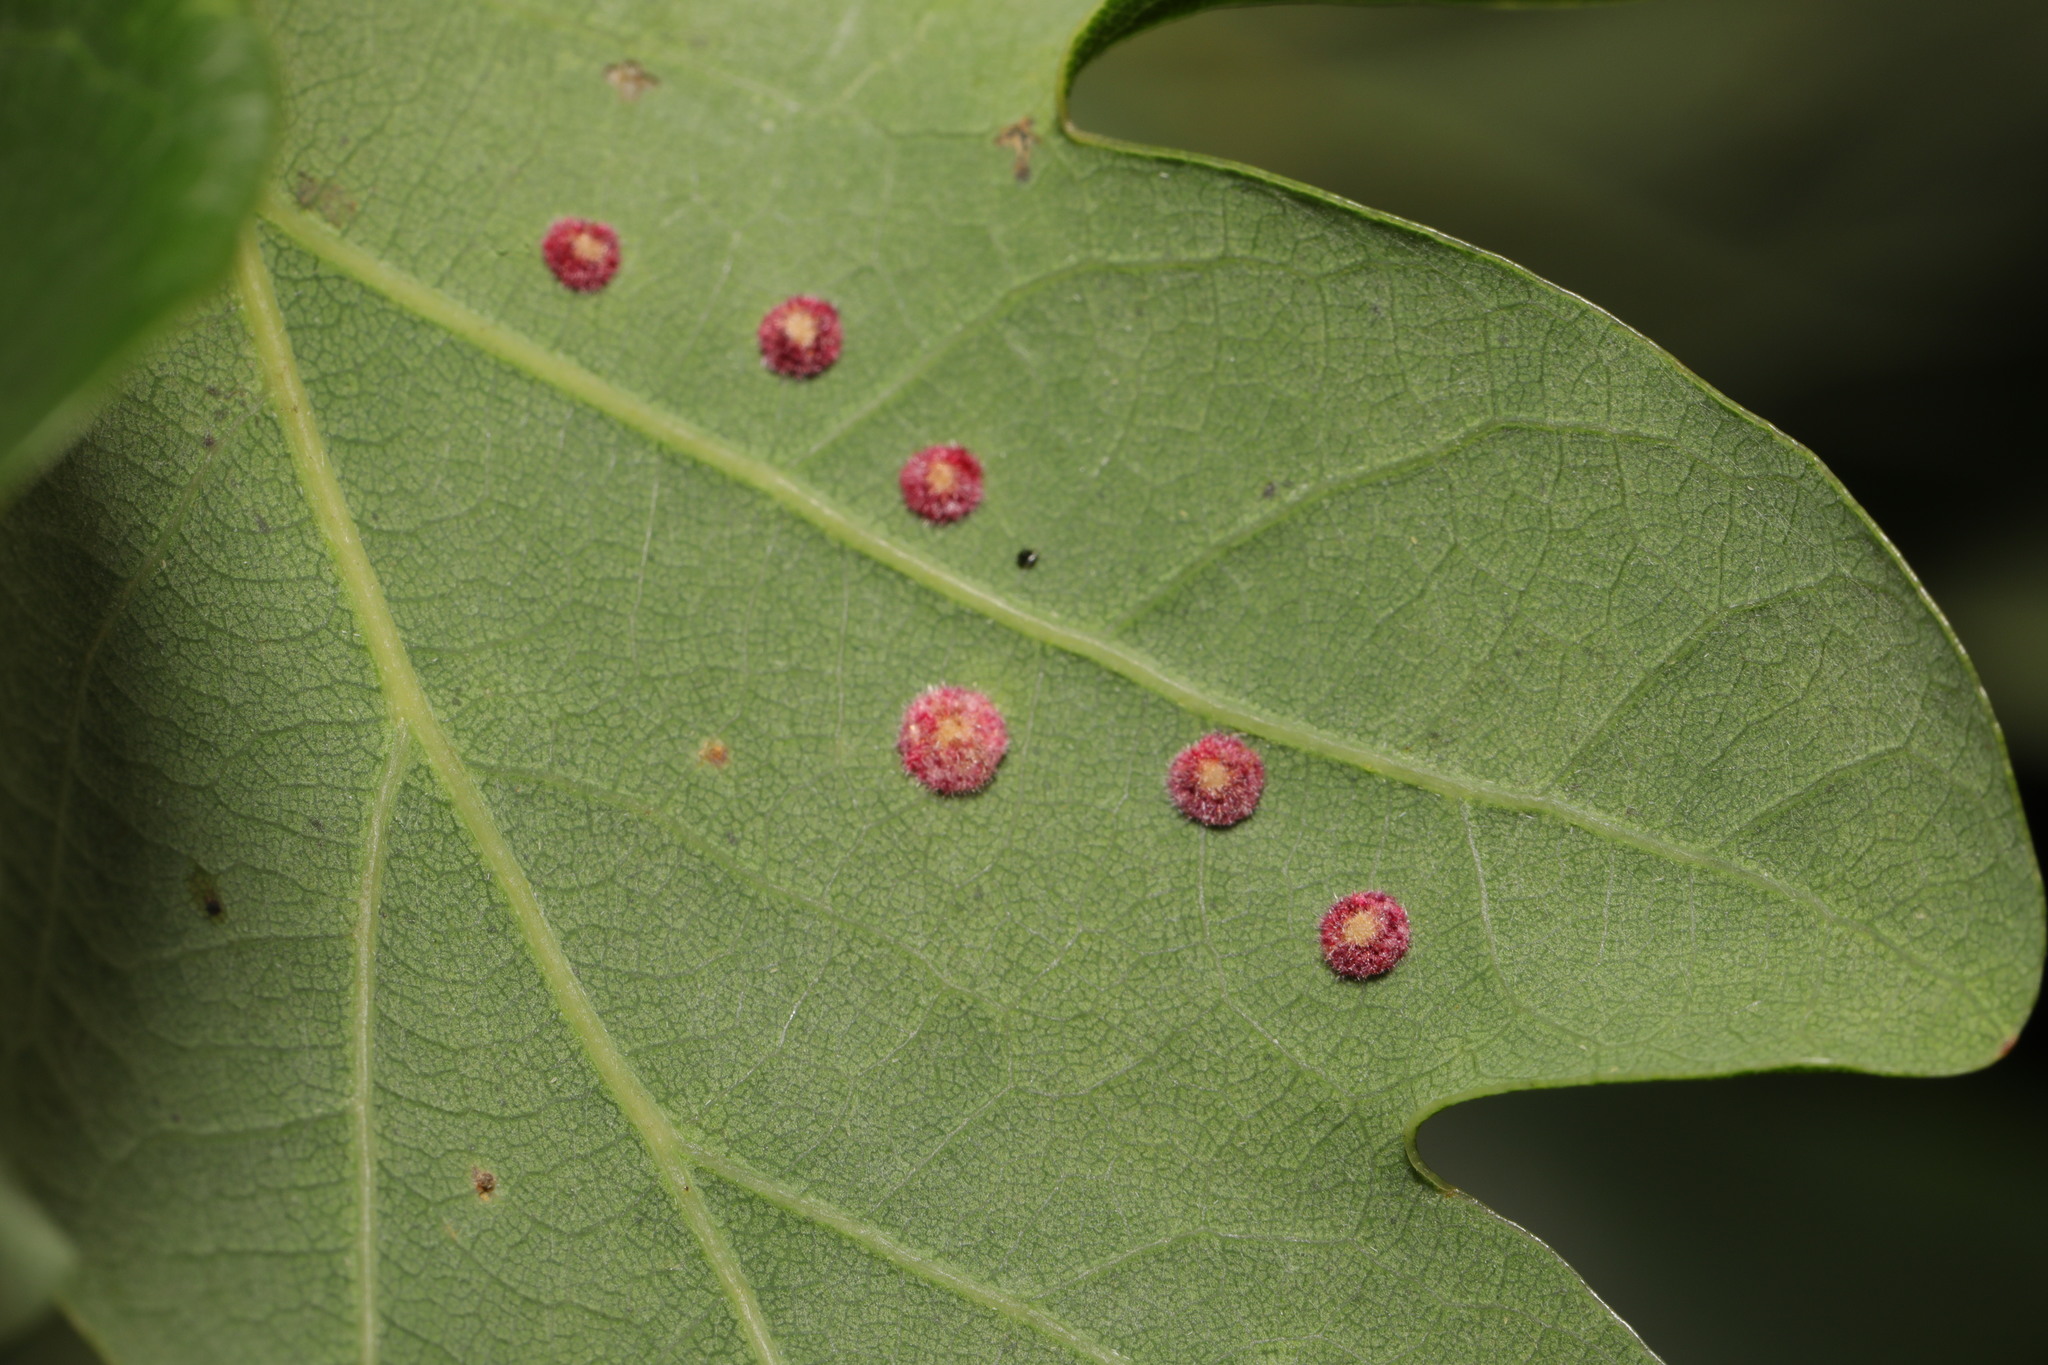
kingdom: Animalia
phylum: Arthropoda
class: Insecta
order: Hymenoptera
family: Cynipidae
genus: Neuroterus
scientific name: Neuroterus quercusbaccarum
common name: Common spangle gall
